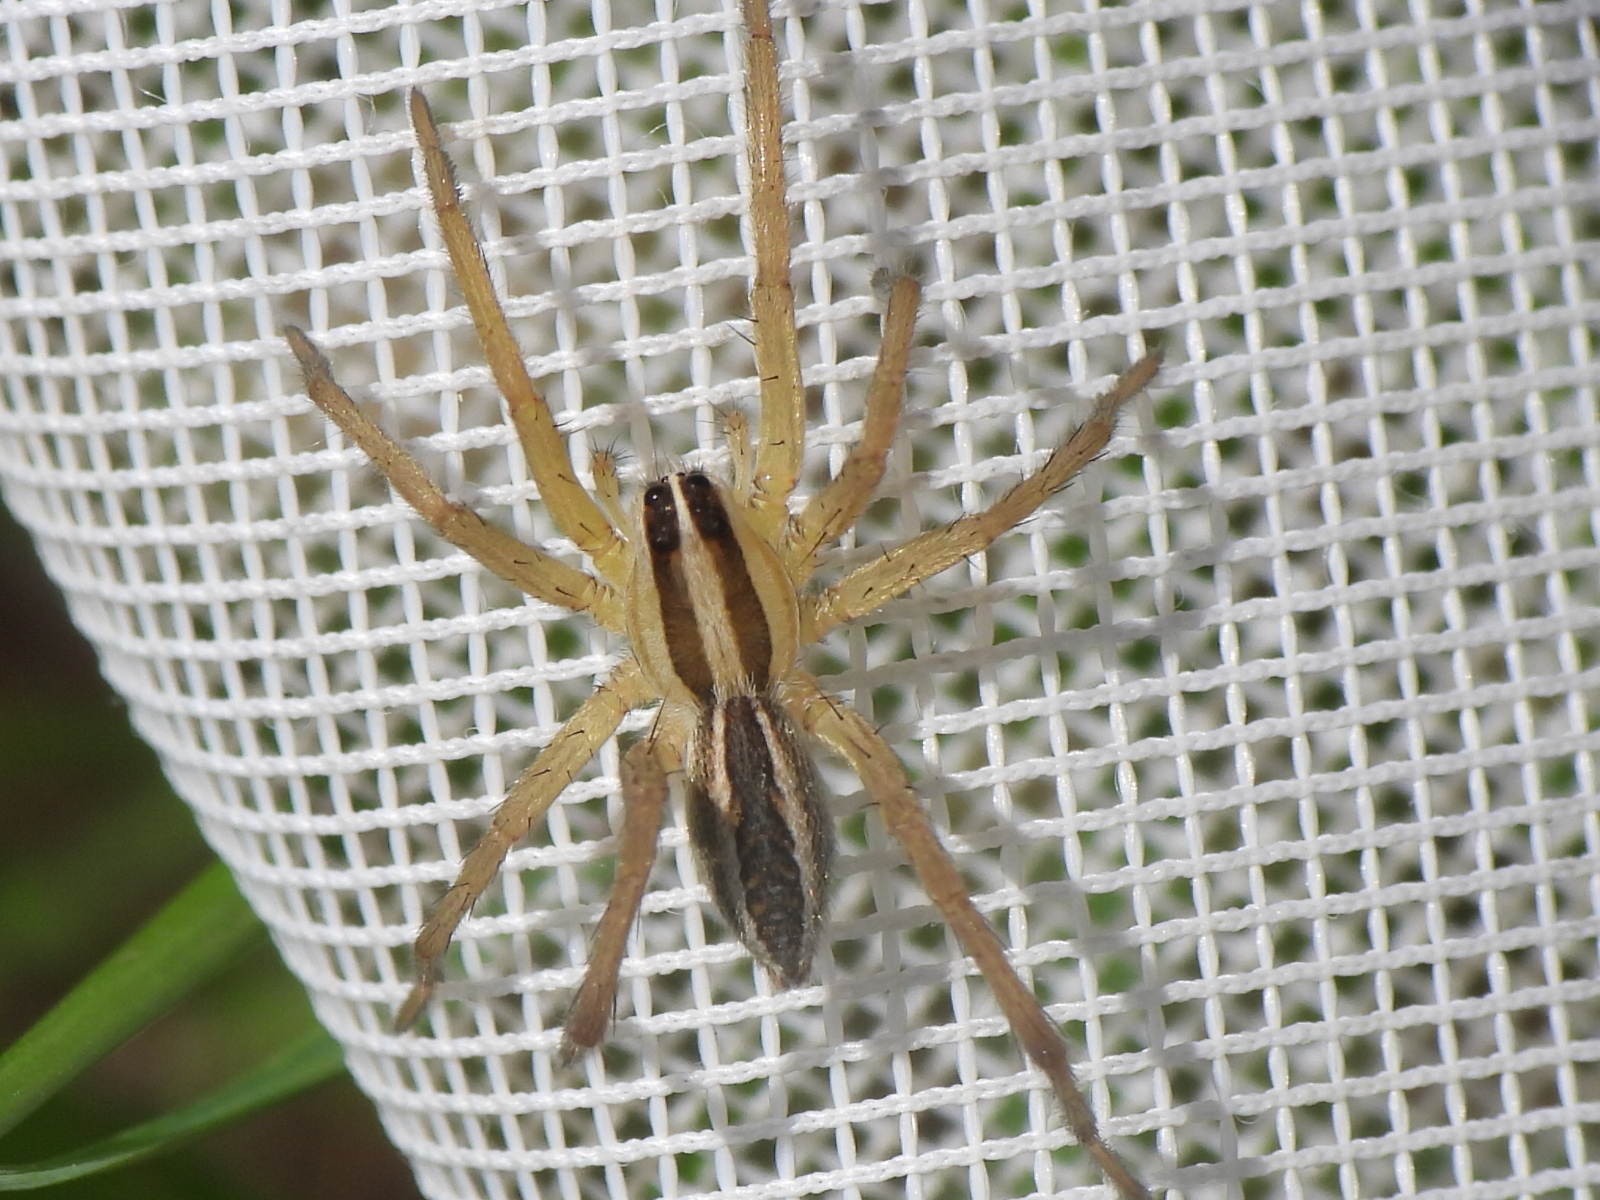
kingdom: Animalia
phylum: Arthropoda
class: Arachnida
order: Araneae
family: Lycosidae
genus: Rabidosa
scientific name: Rabidosa rabida
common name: Rabid wolf spider
